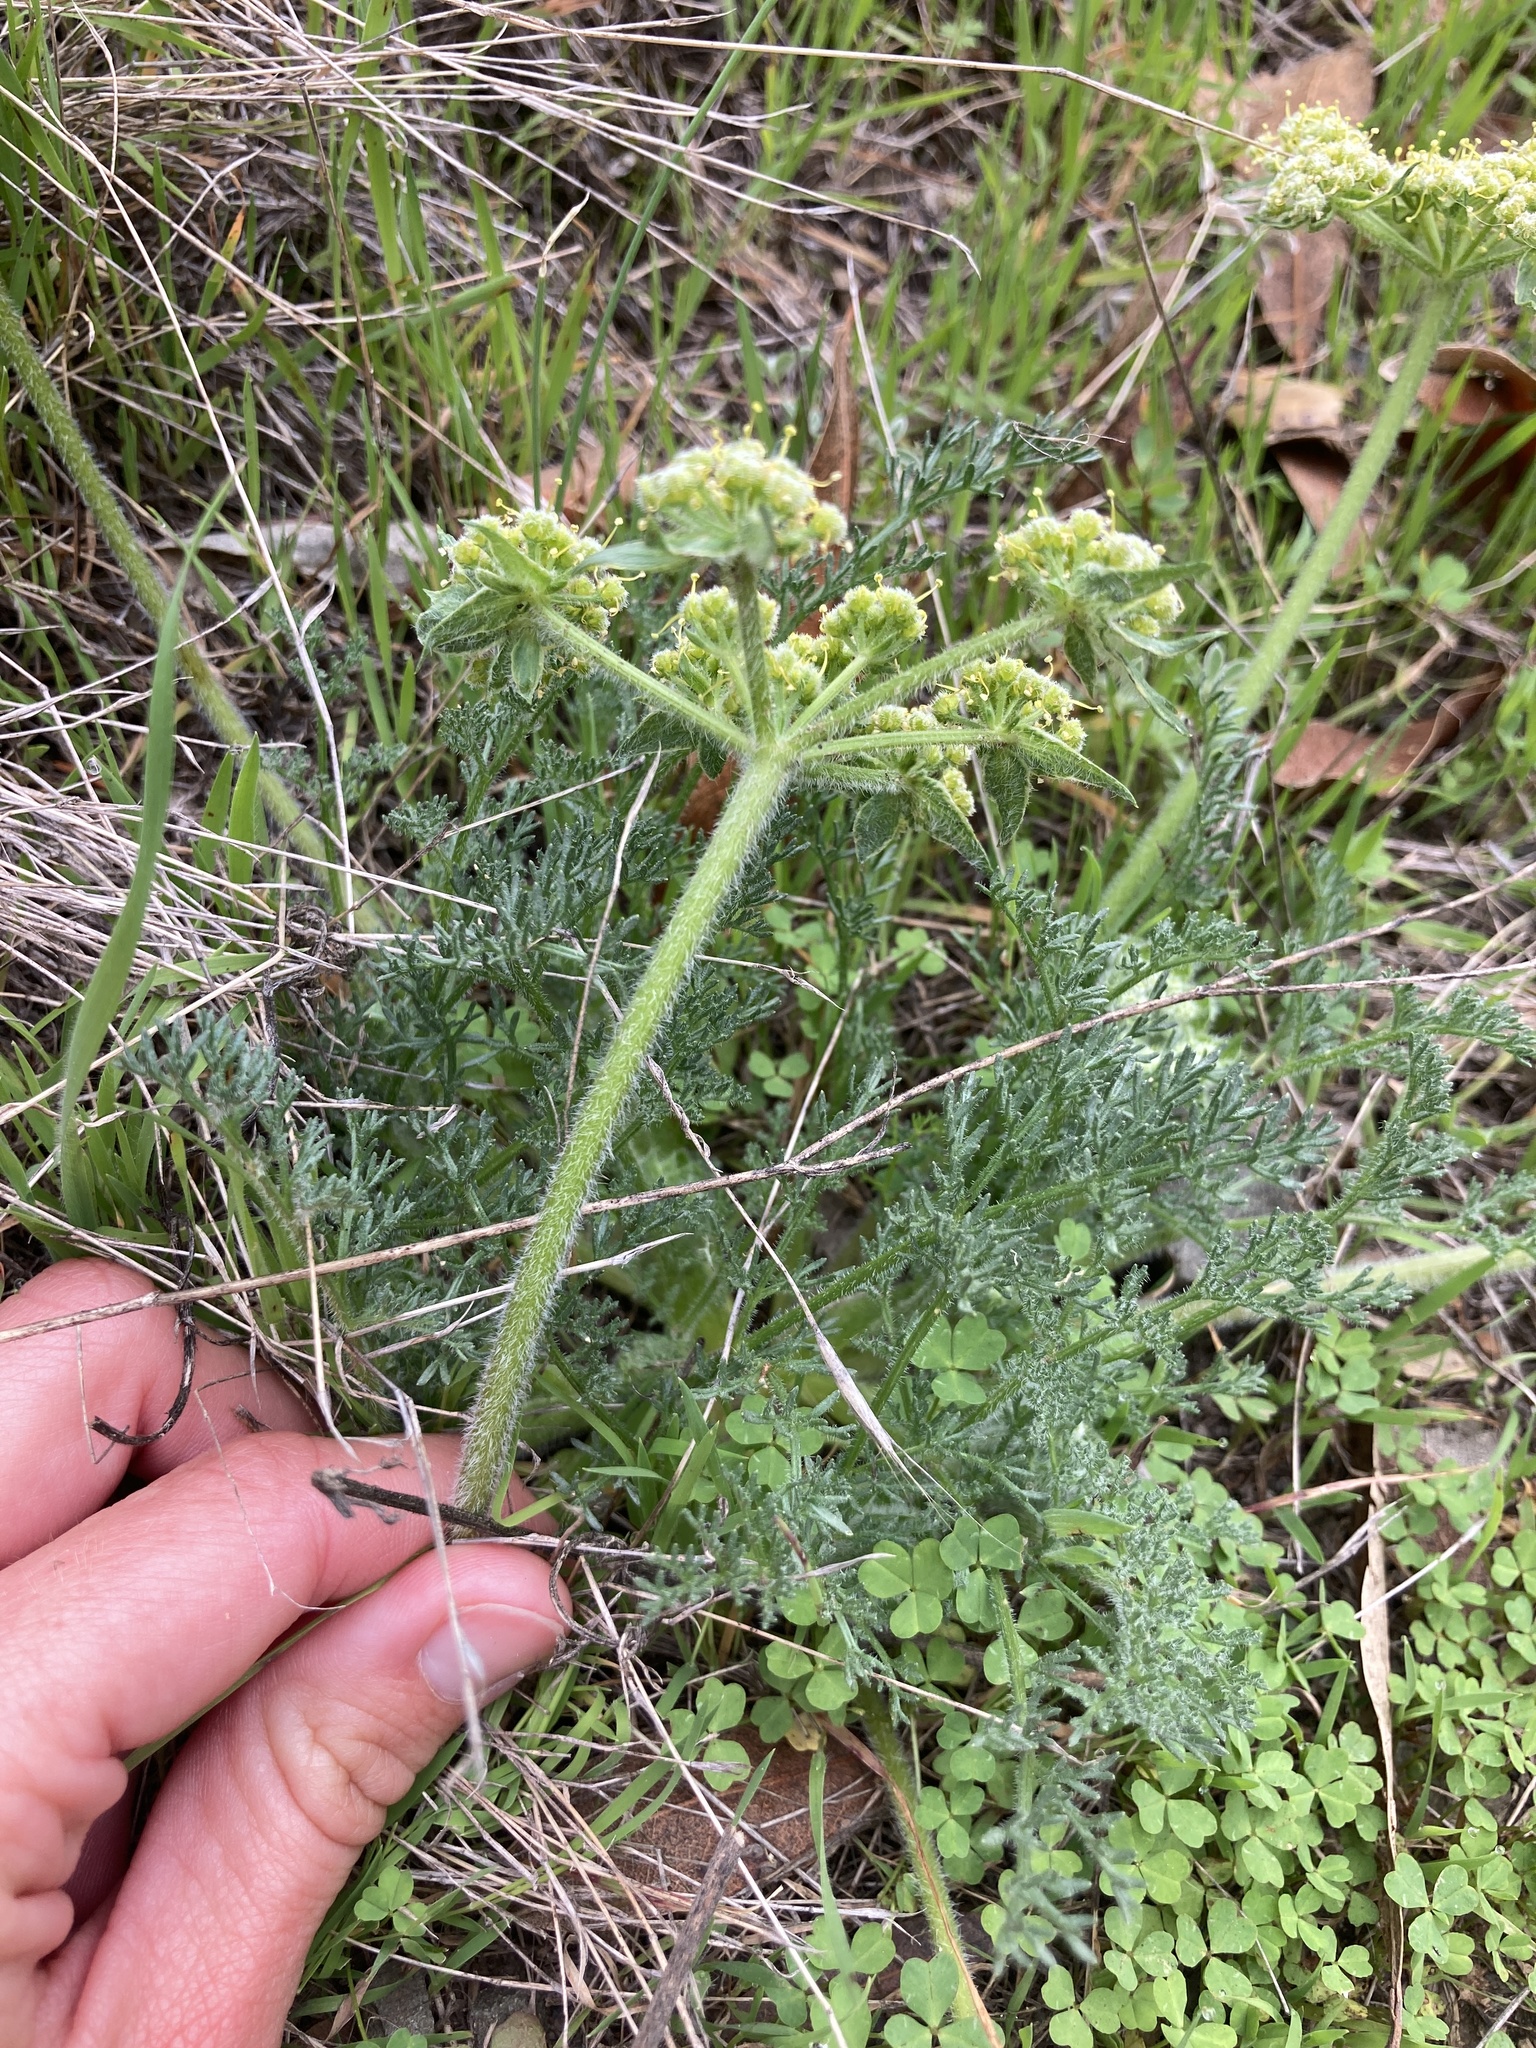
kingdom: Plantae
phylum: Tracheophyta
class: Magnoliopsida
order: Apiales
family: Apiaceae
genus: Lomatium
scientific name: Lomatium dasycarpum
